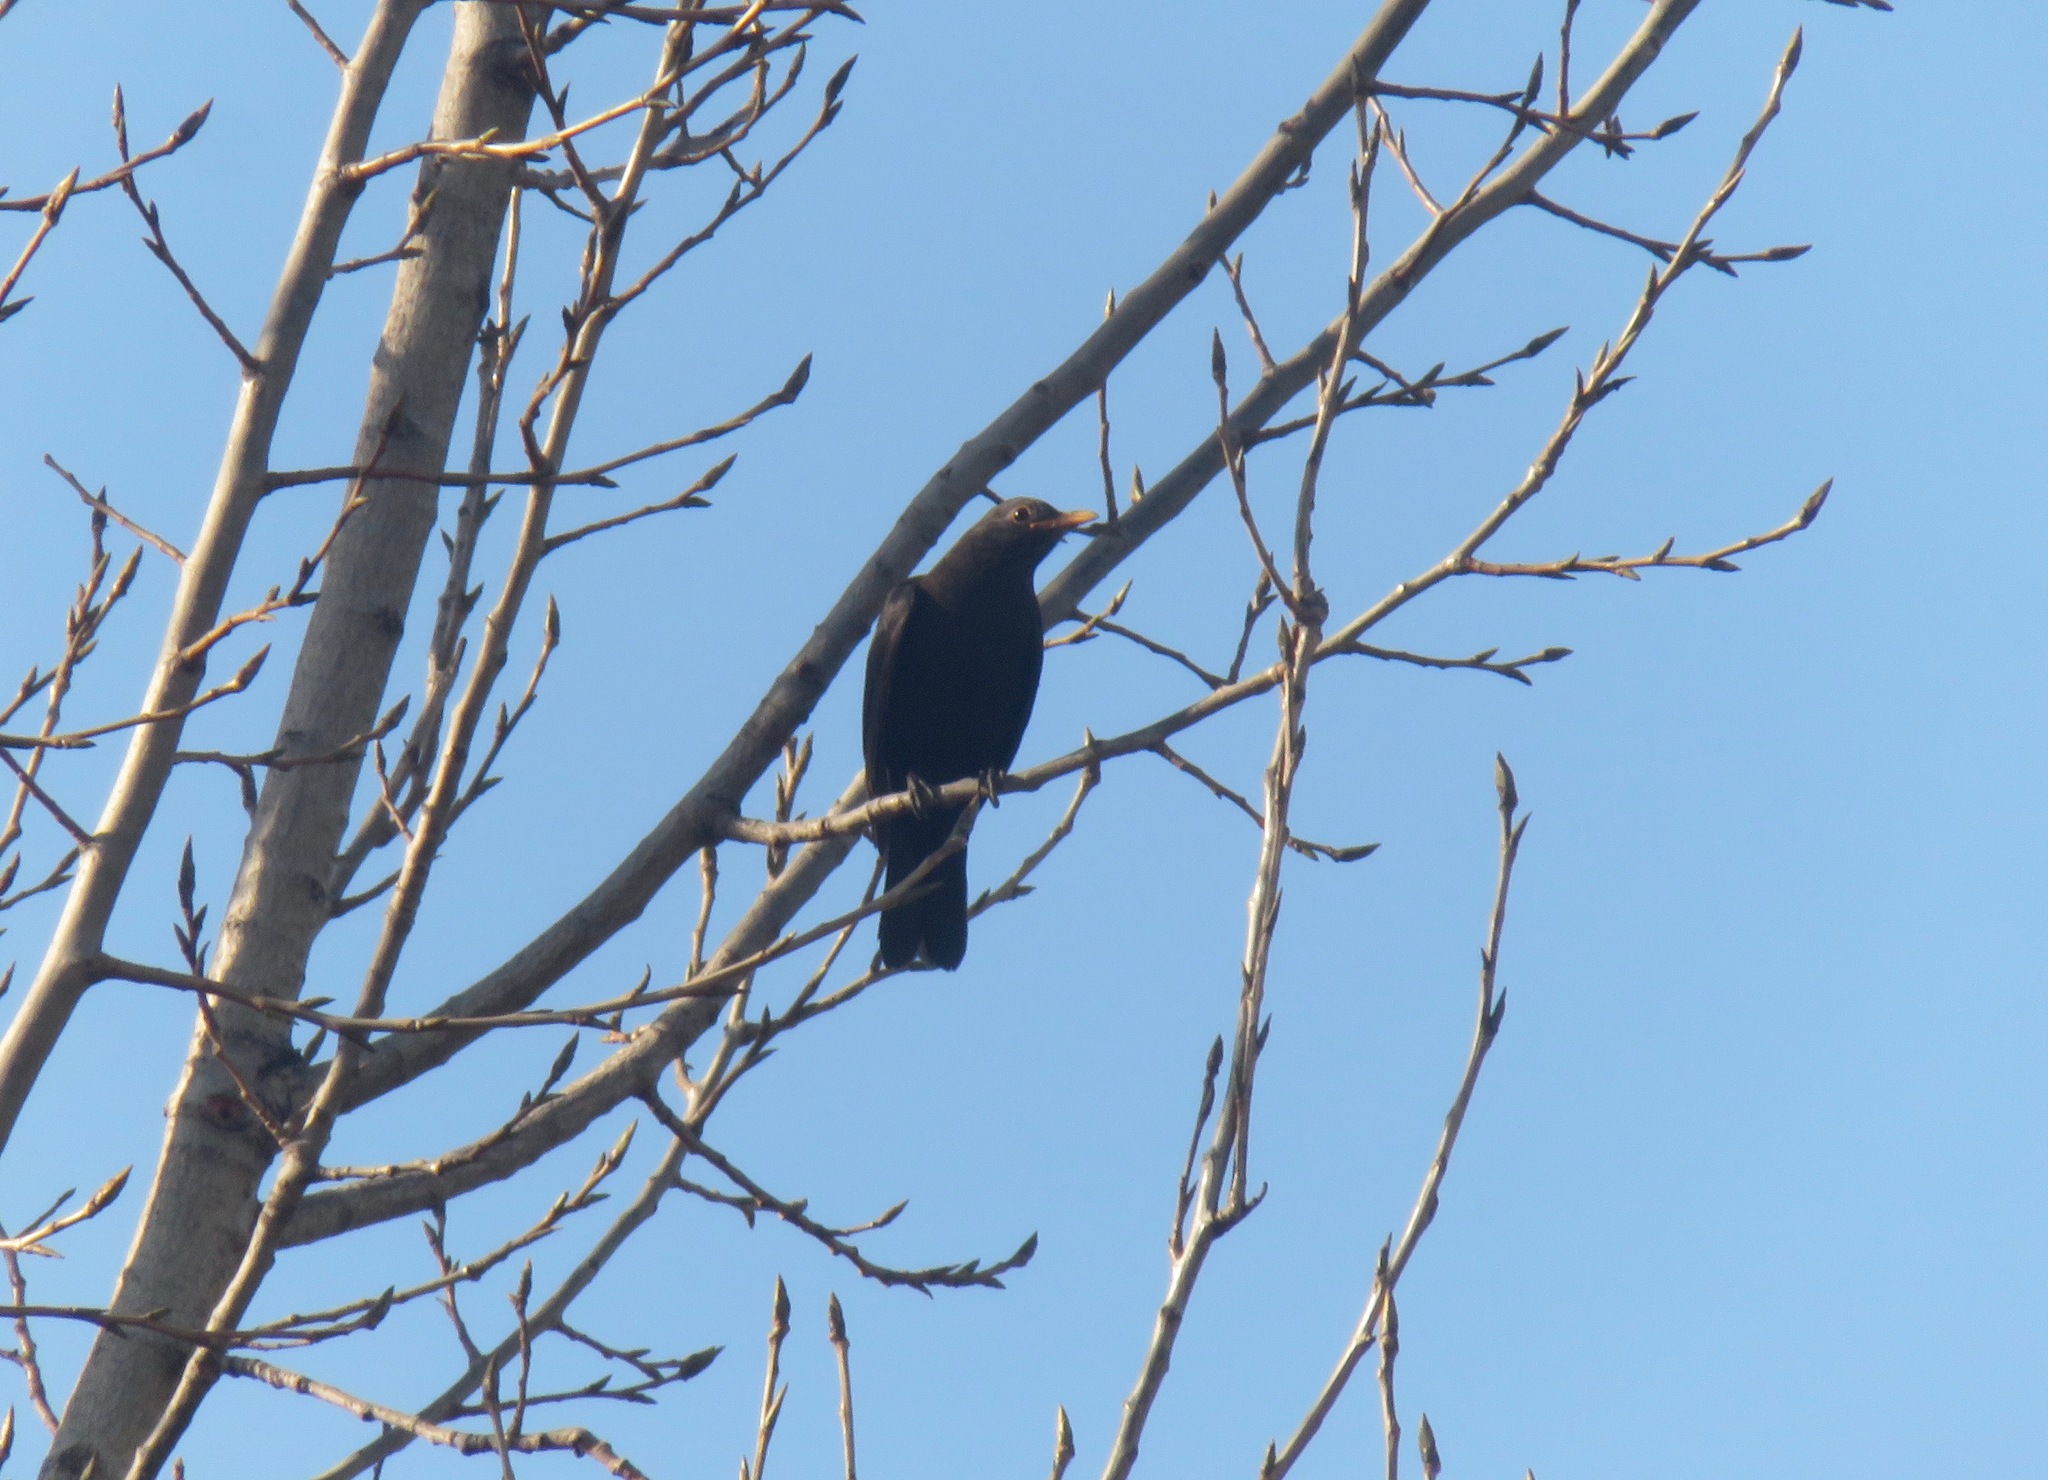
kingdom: Animalia
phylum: Chordata
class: Aves
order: Passeriformes
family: Turdidae
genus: Turdus
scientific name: Turdus mandarinus
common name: Chinese blackbird
